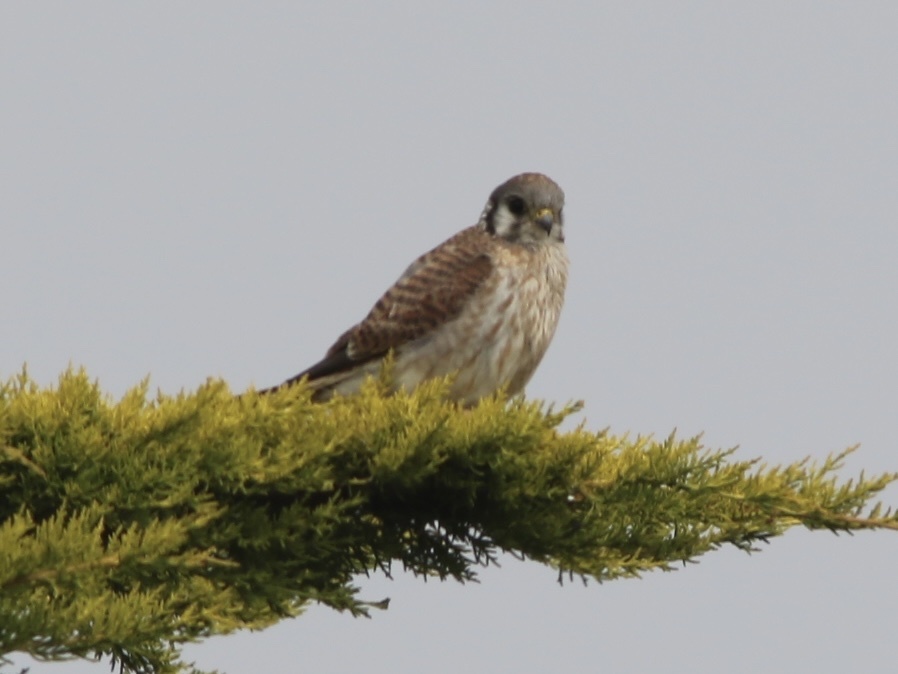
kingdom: Animalia
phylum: Chordata
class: Aves
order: Falconiformes
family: Falconidae
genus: Falco
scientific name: Falco sparverius
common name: American kestrel
